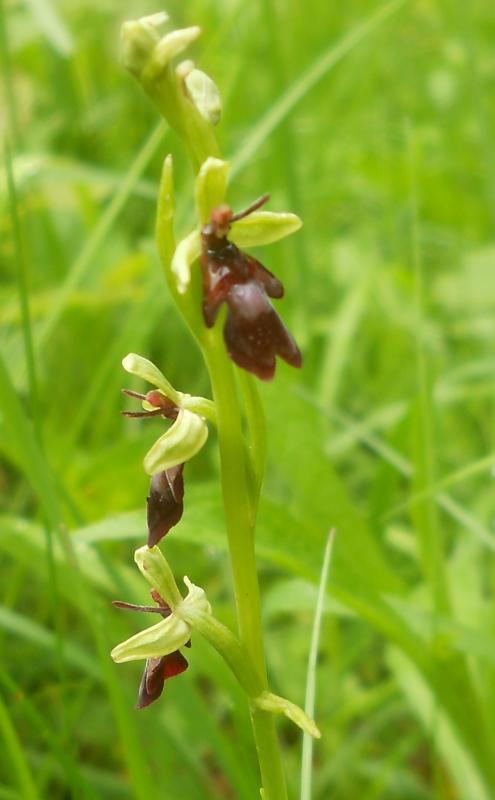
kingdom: Plantae
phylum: Tracheophyta
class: Liliopsida
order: Asparagales
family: Orchidaceae
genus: Ophrys
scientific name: Ophrys insectifera
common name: Fly orchid
